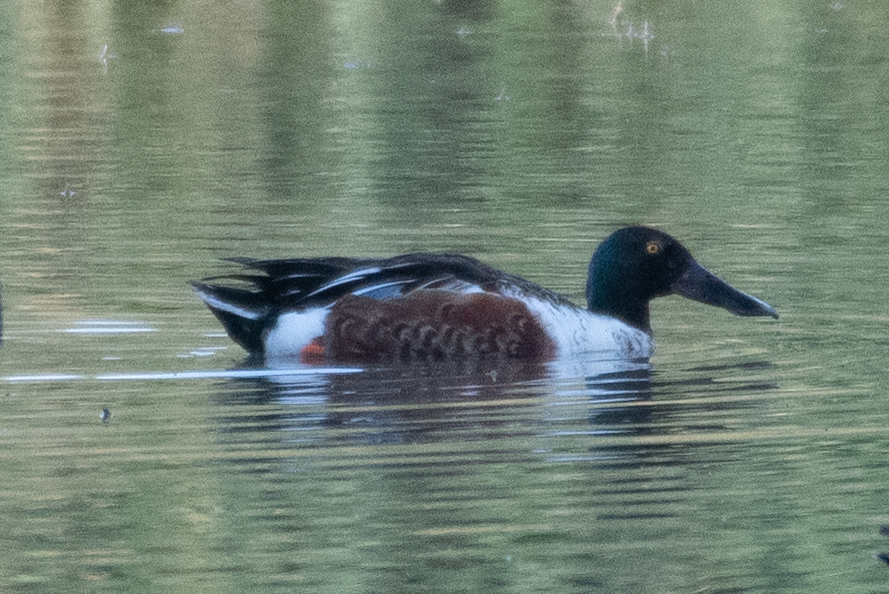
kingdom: Animalia
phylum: Chordata
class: Aves
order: Anseriformes
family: Anatidae
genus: Spatula
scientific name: Spatula clypeata
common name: Northern shoveler
